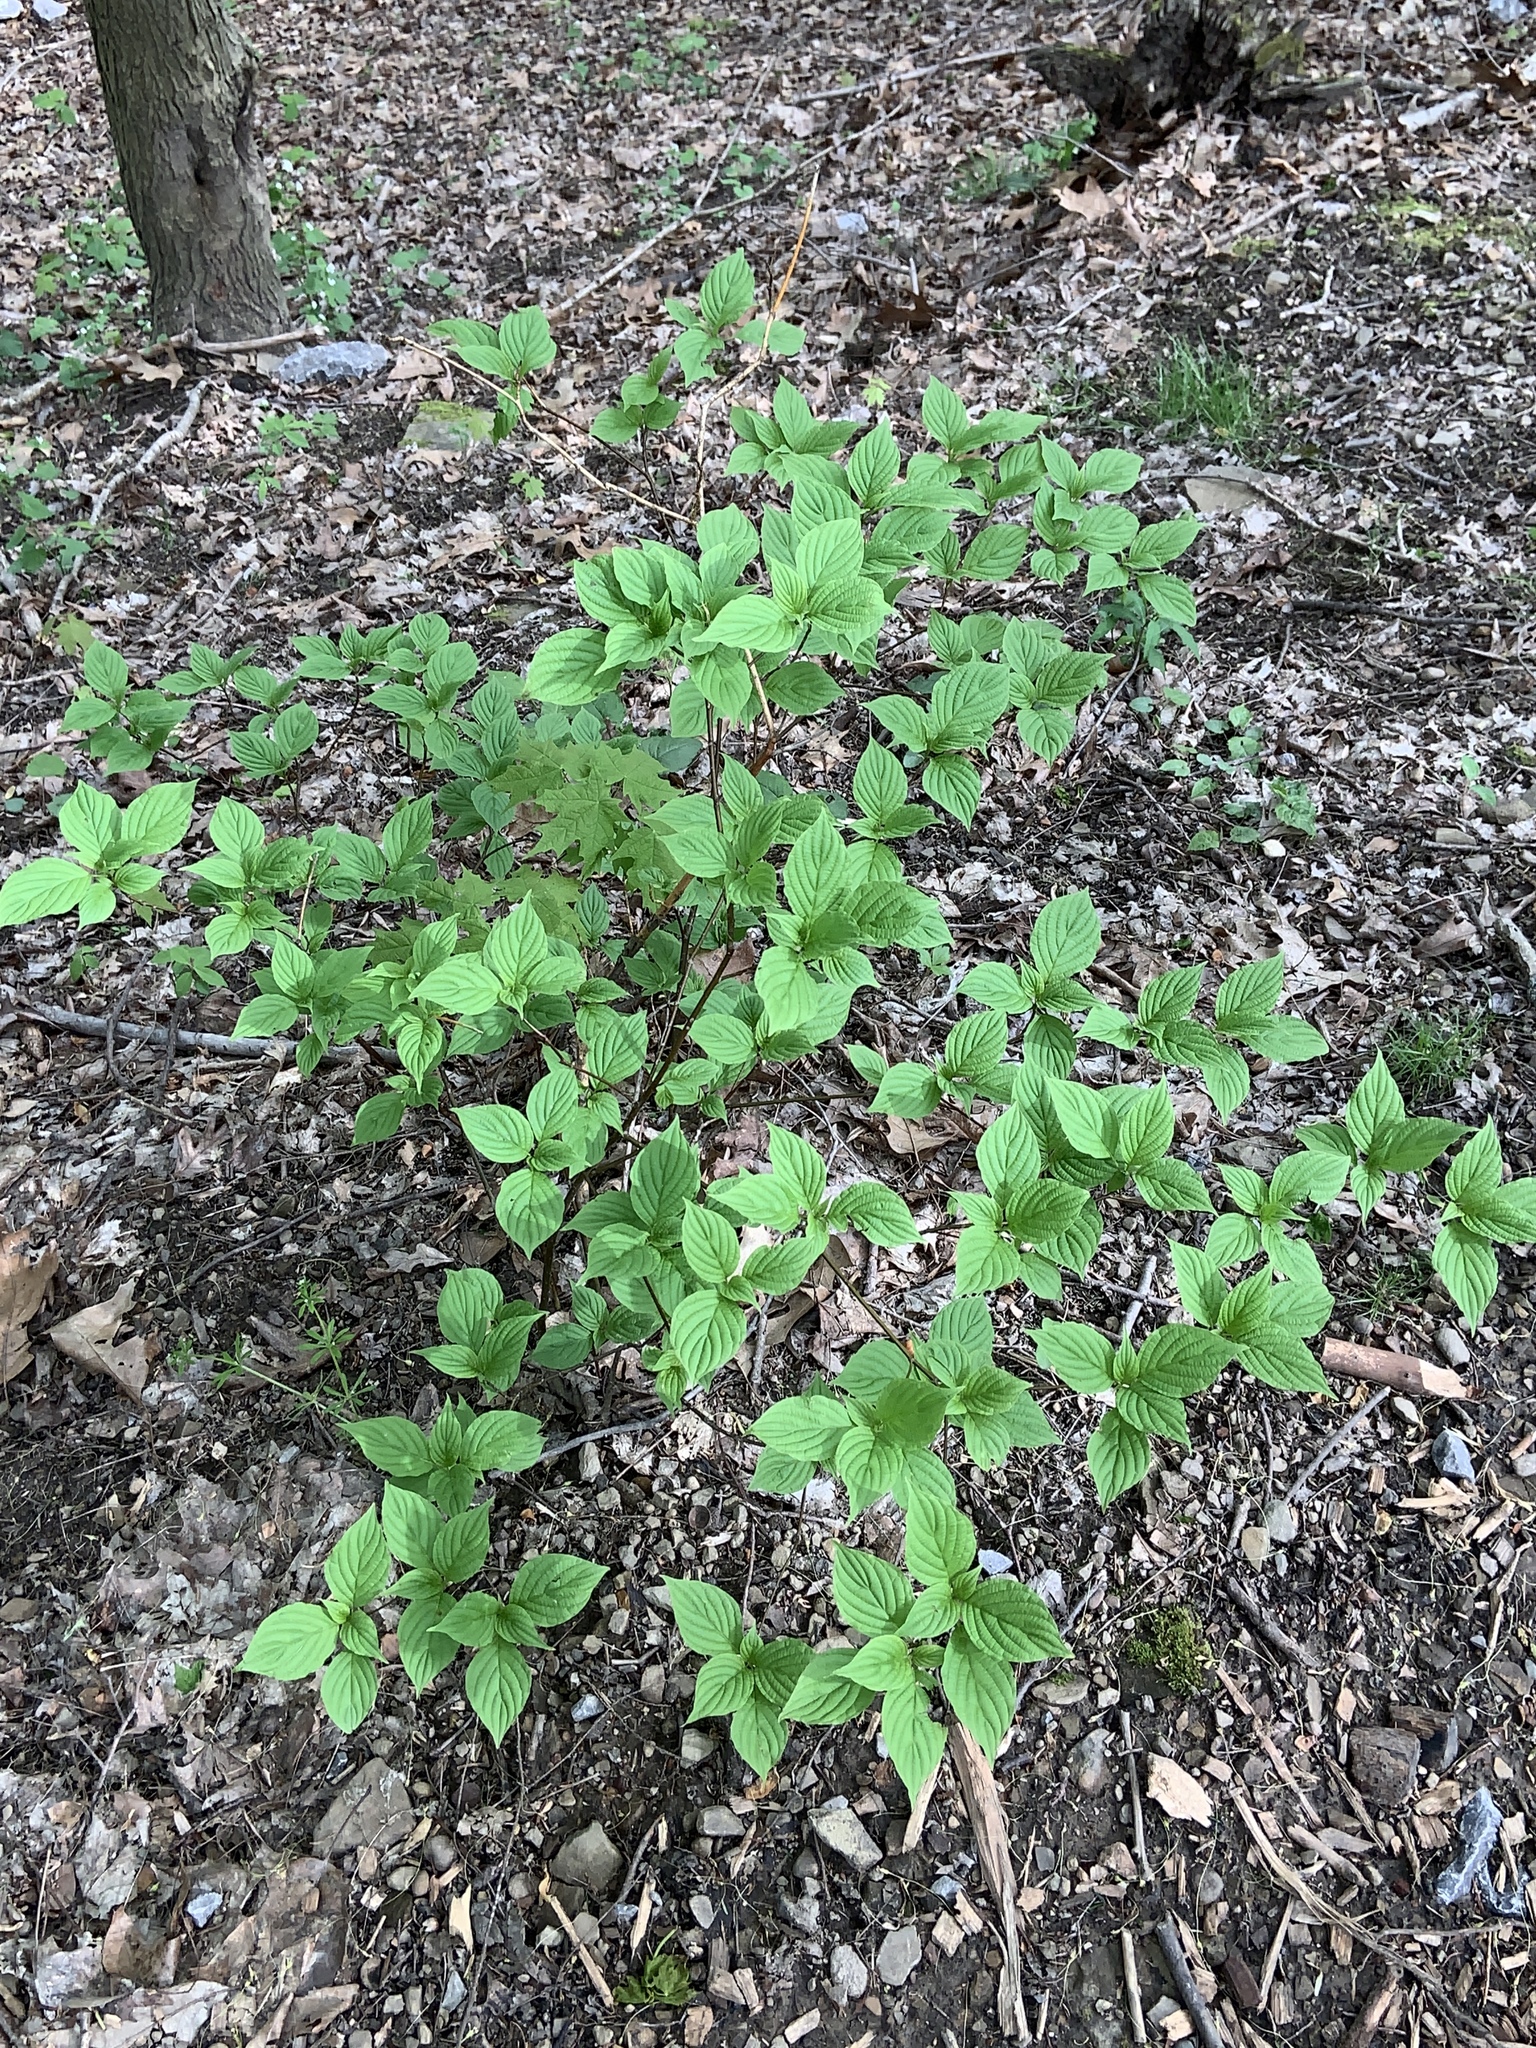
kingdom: Plantae
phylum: Tracheophyta
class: Magnoliopsida
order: Cornales
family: Cornaceae
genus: Cornus
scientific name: Cornus alternifolia
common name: Pagoda dogwood
